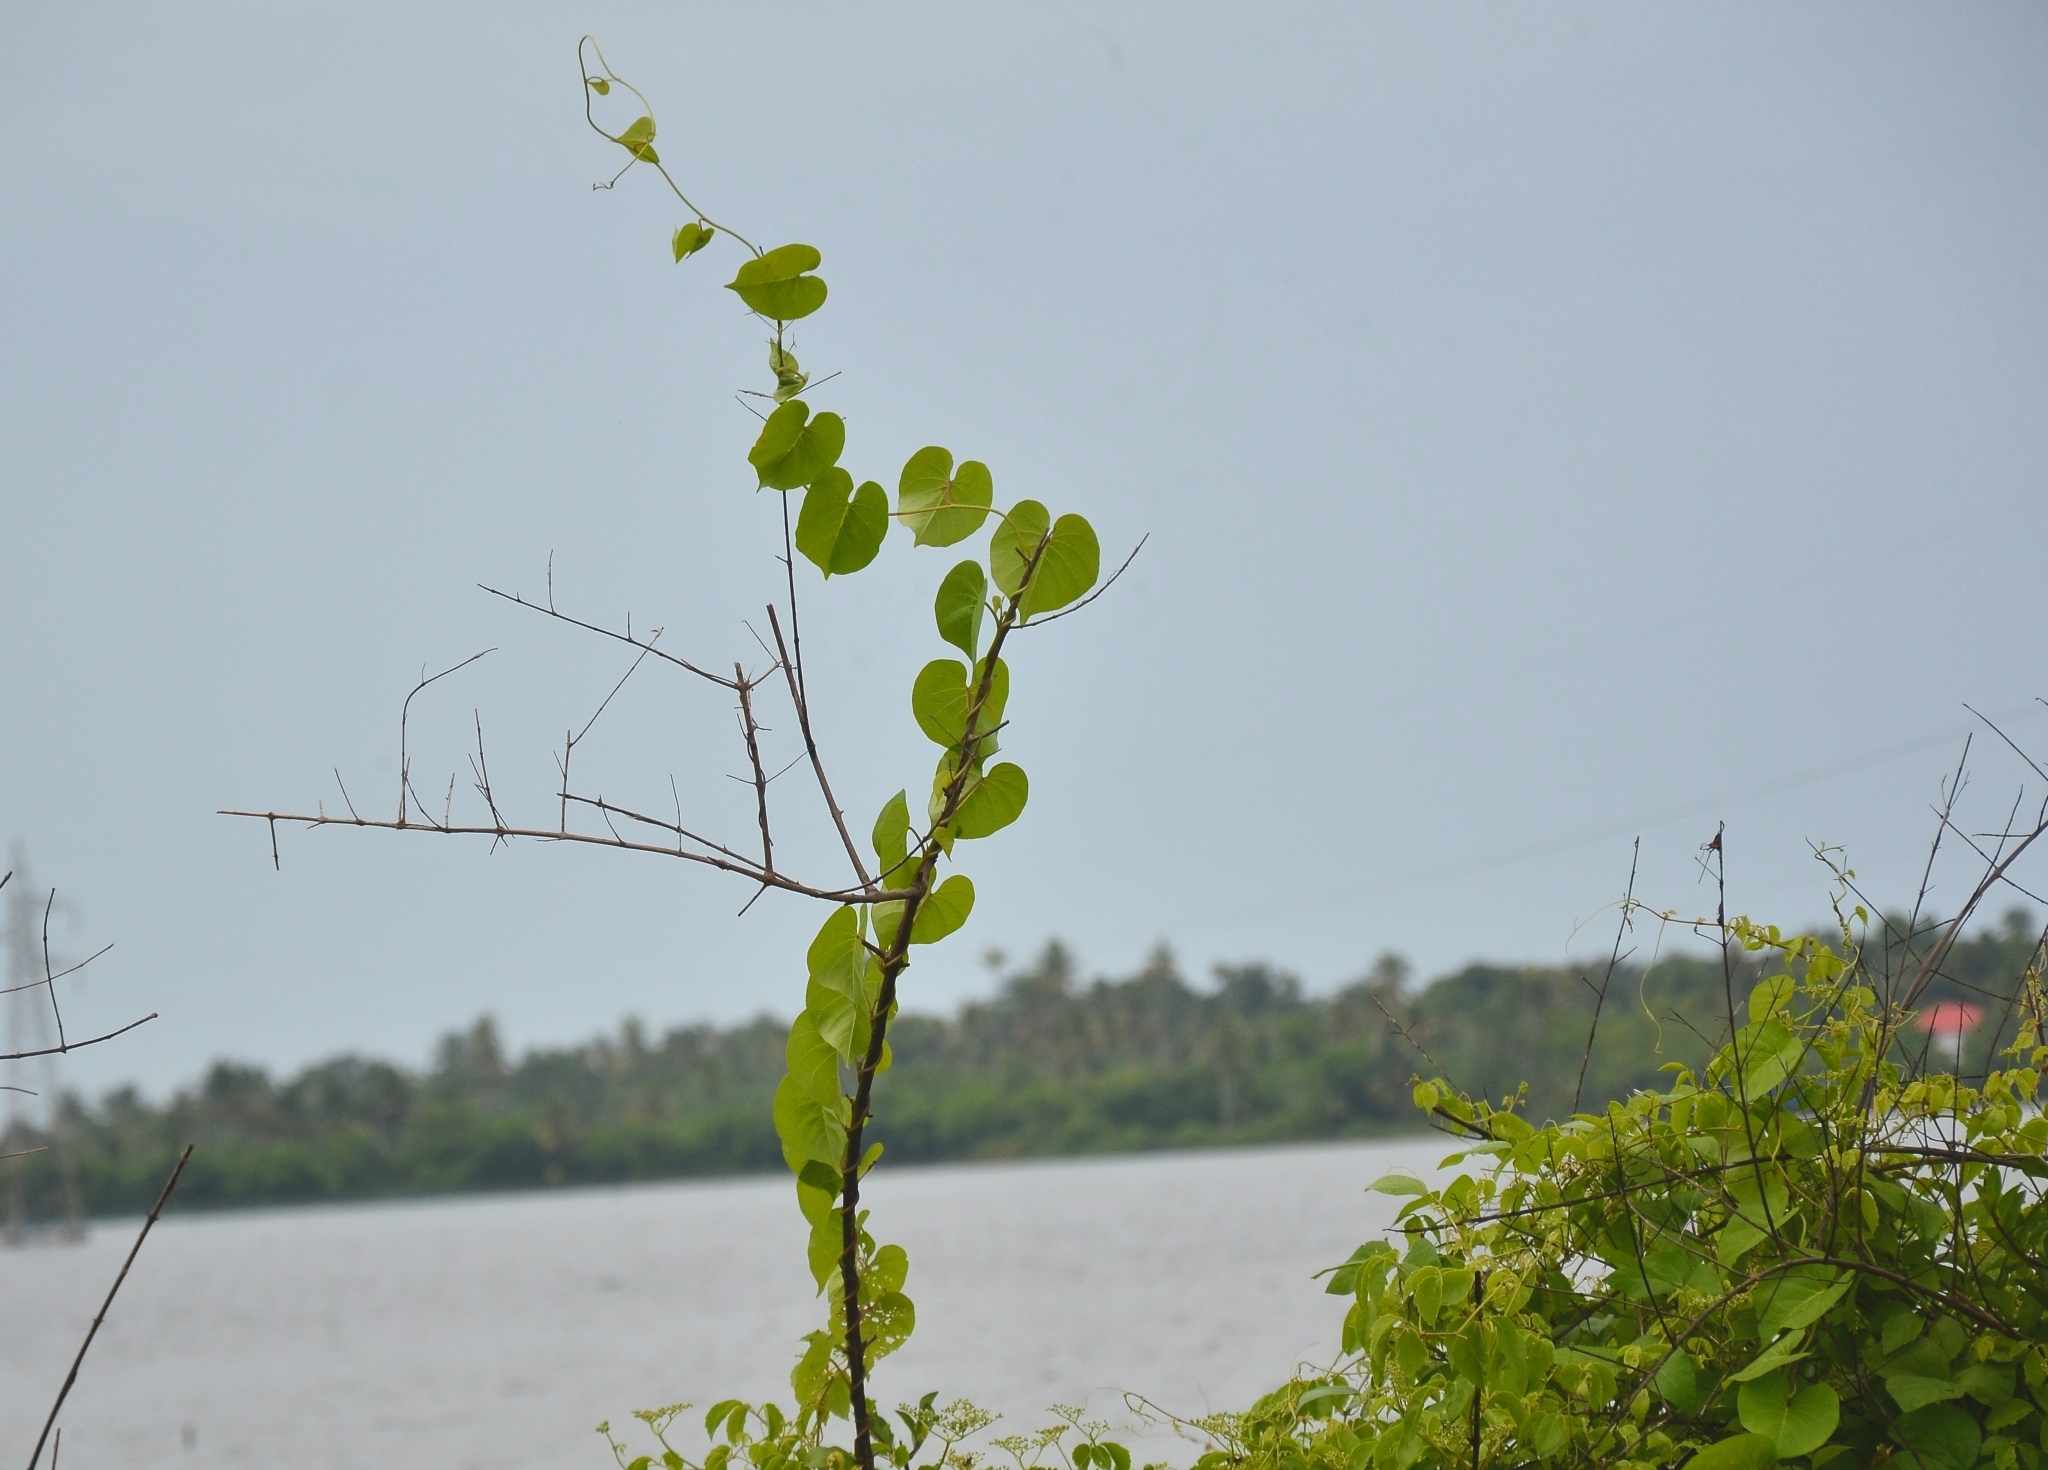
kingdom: Plantae
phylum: Tracheophyta
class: Magnoliopsida
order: Solanales
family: Convolvulaceae
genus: Ipomoea
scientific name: Ipomoea violacea
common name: Beach moonflower
